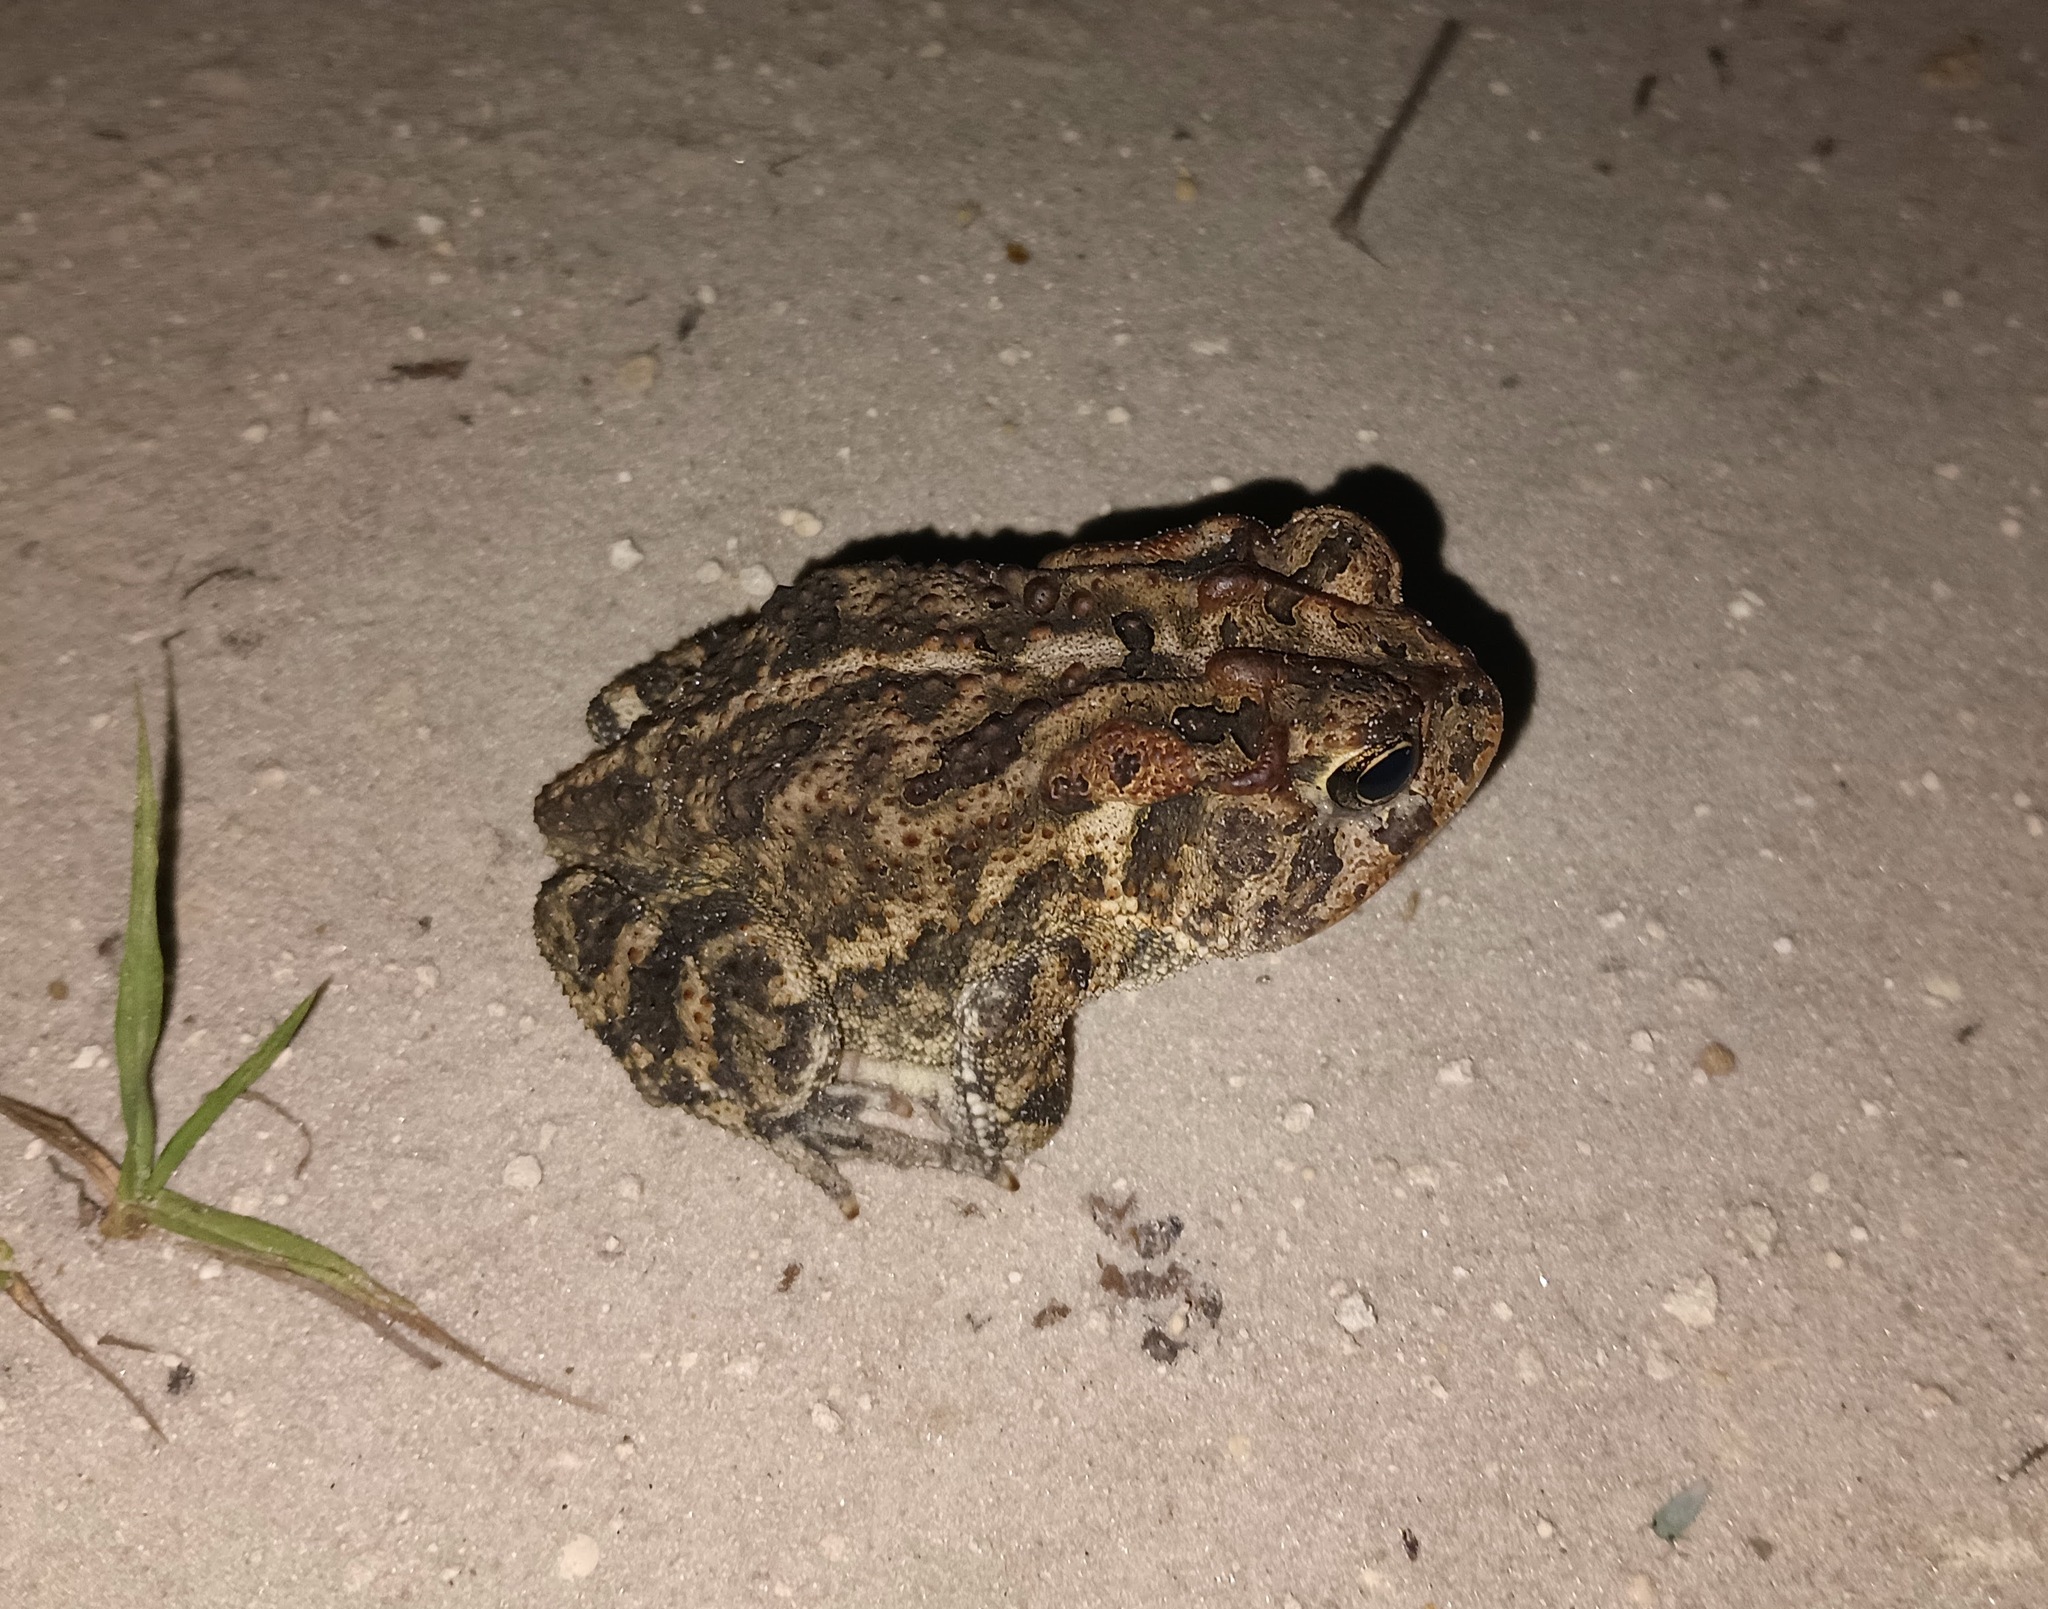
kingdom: Animalia
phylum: Chordata
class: Amphibia
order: Anura
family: Bufonidae
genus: Anaxyrus
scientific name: Anaxyrus terrestris
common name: Southern toad
